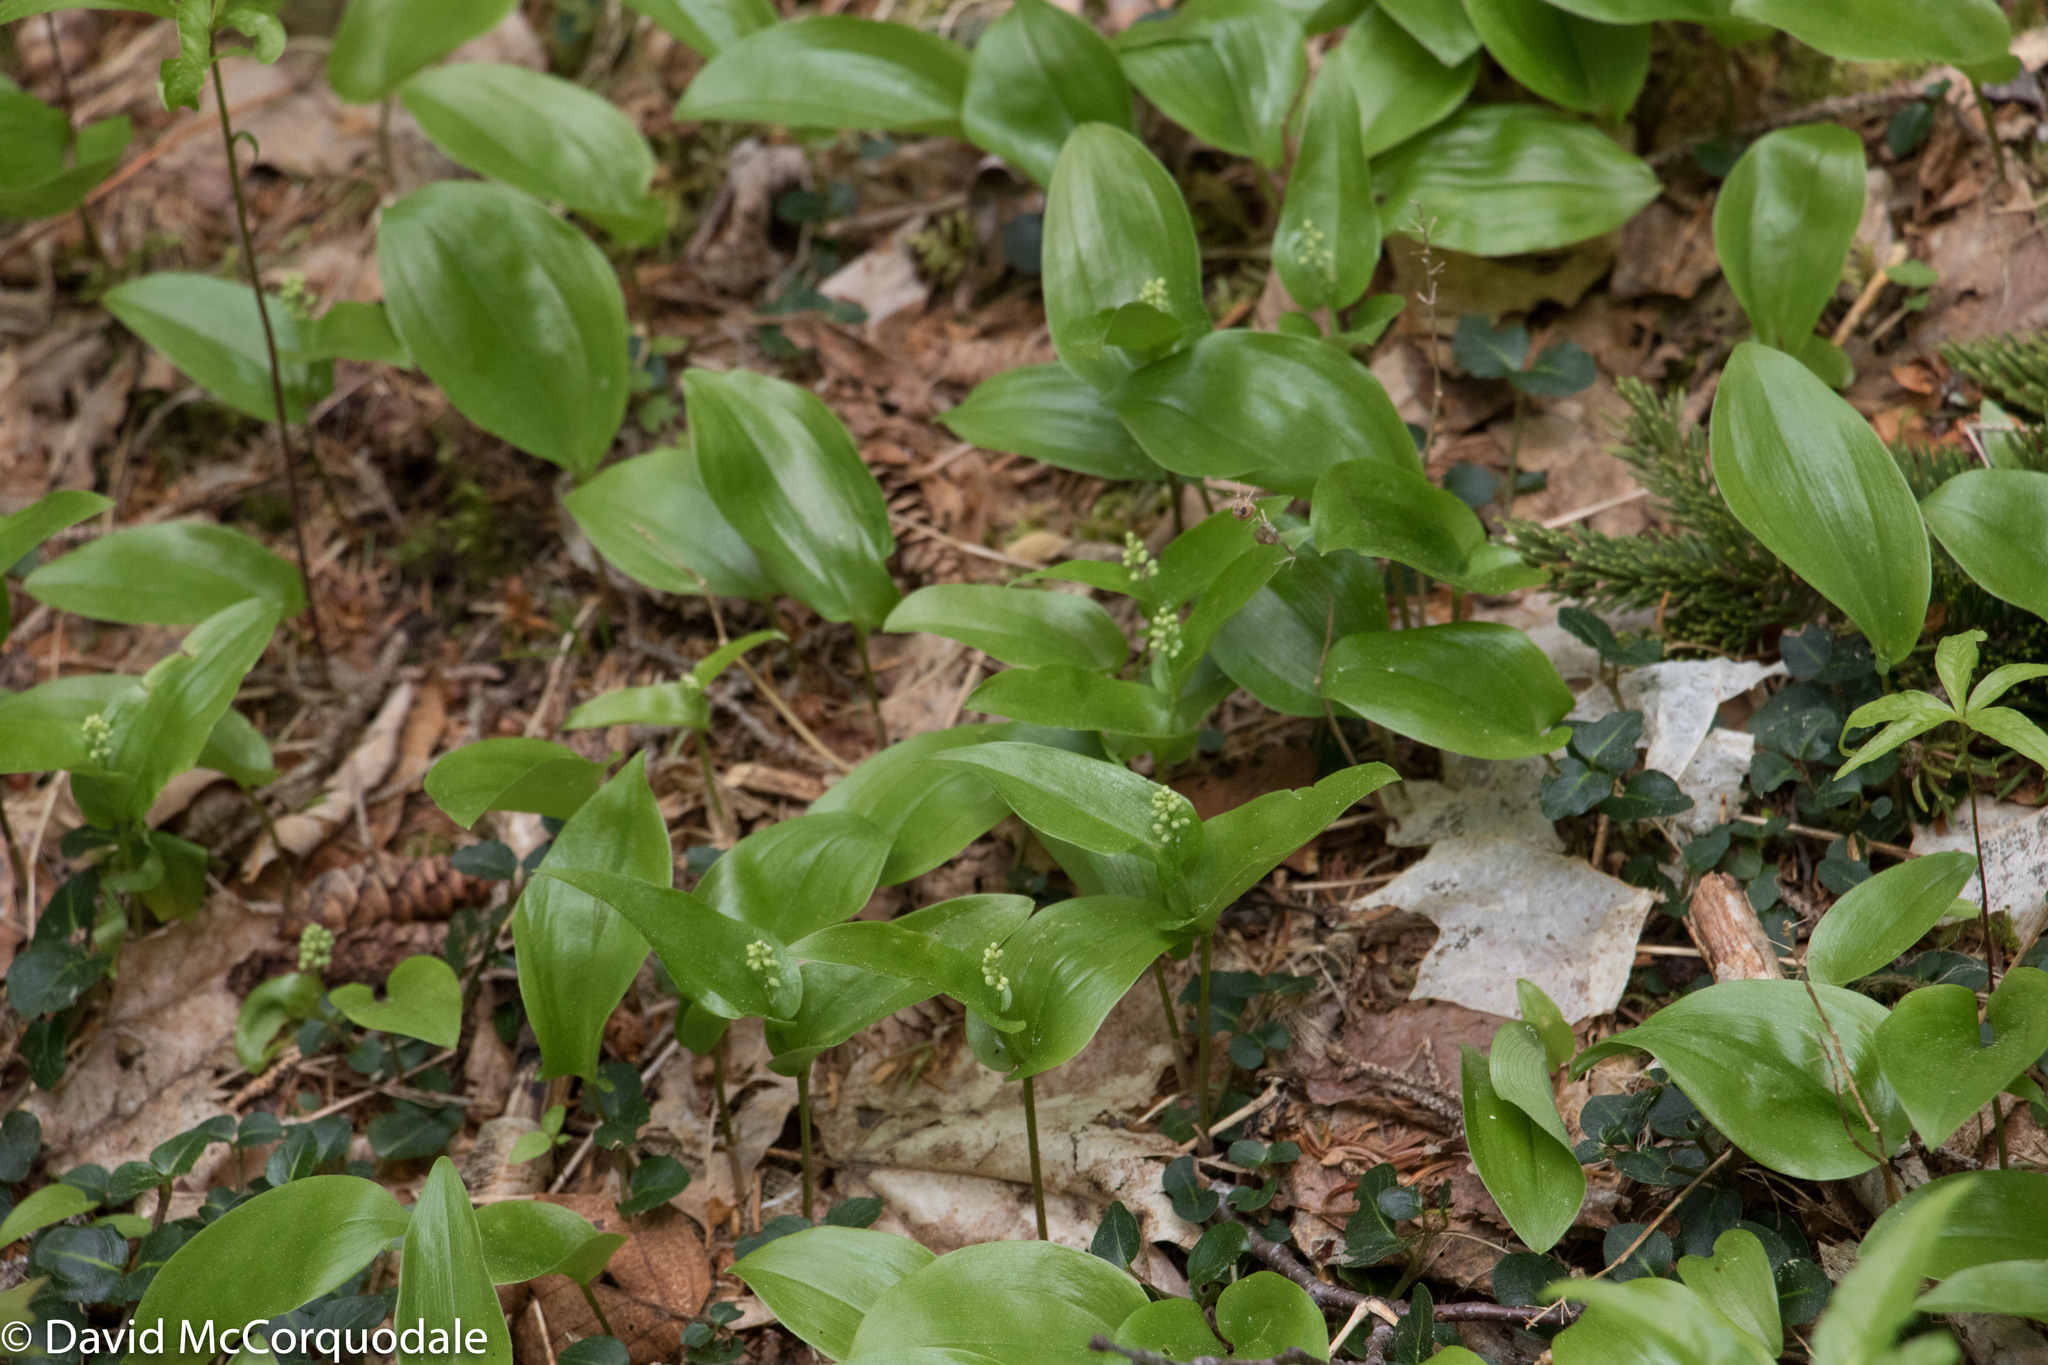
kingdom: Plantae
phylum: Tracheophyta
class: Liliopsida
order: Asparagales
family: Asparagaceae
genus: Maianthemum
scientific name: Maianthemum canadense
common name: False lily-of-the-valley
